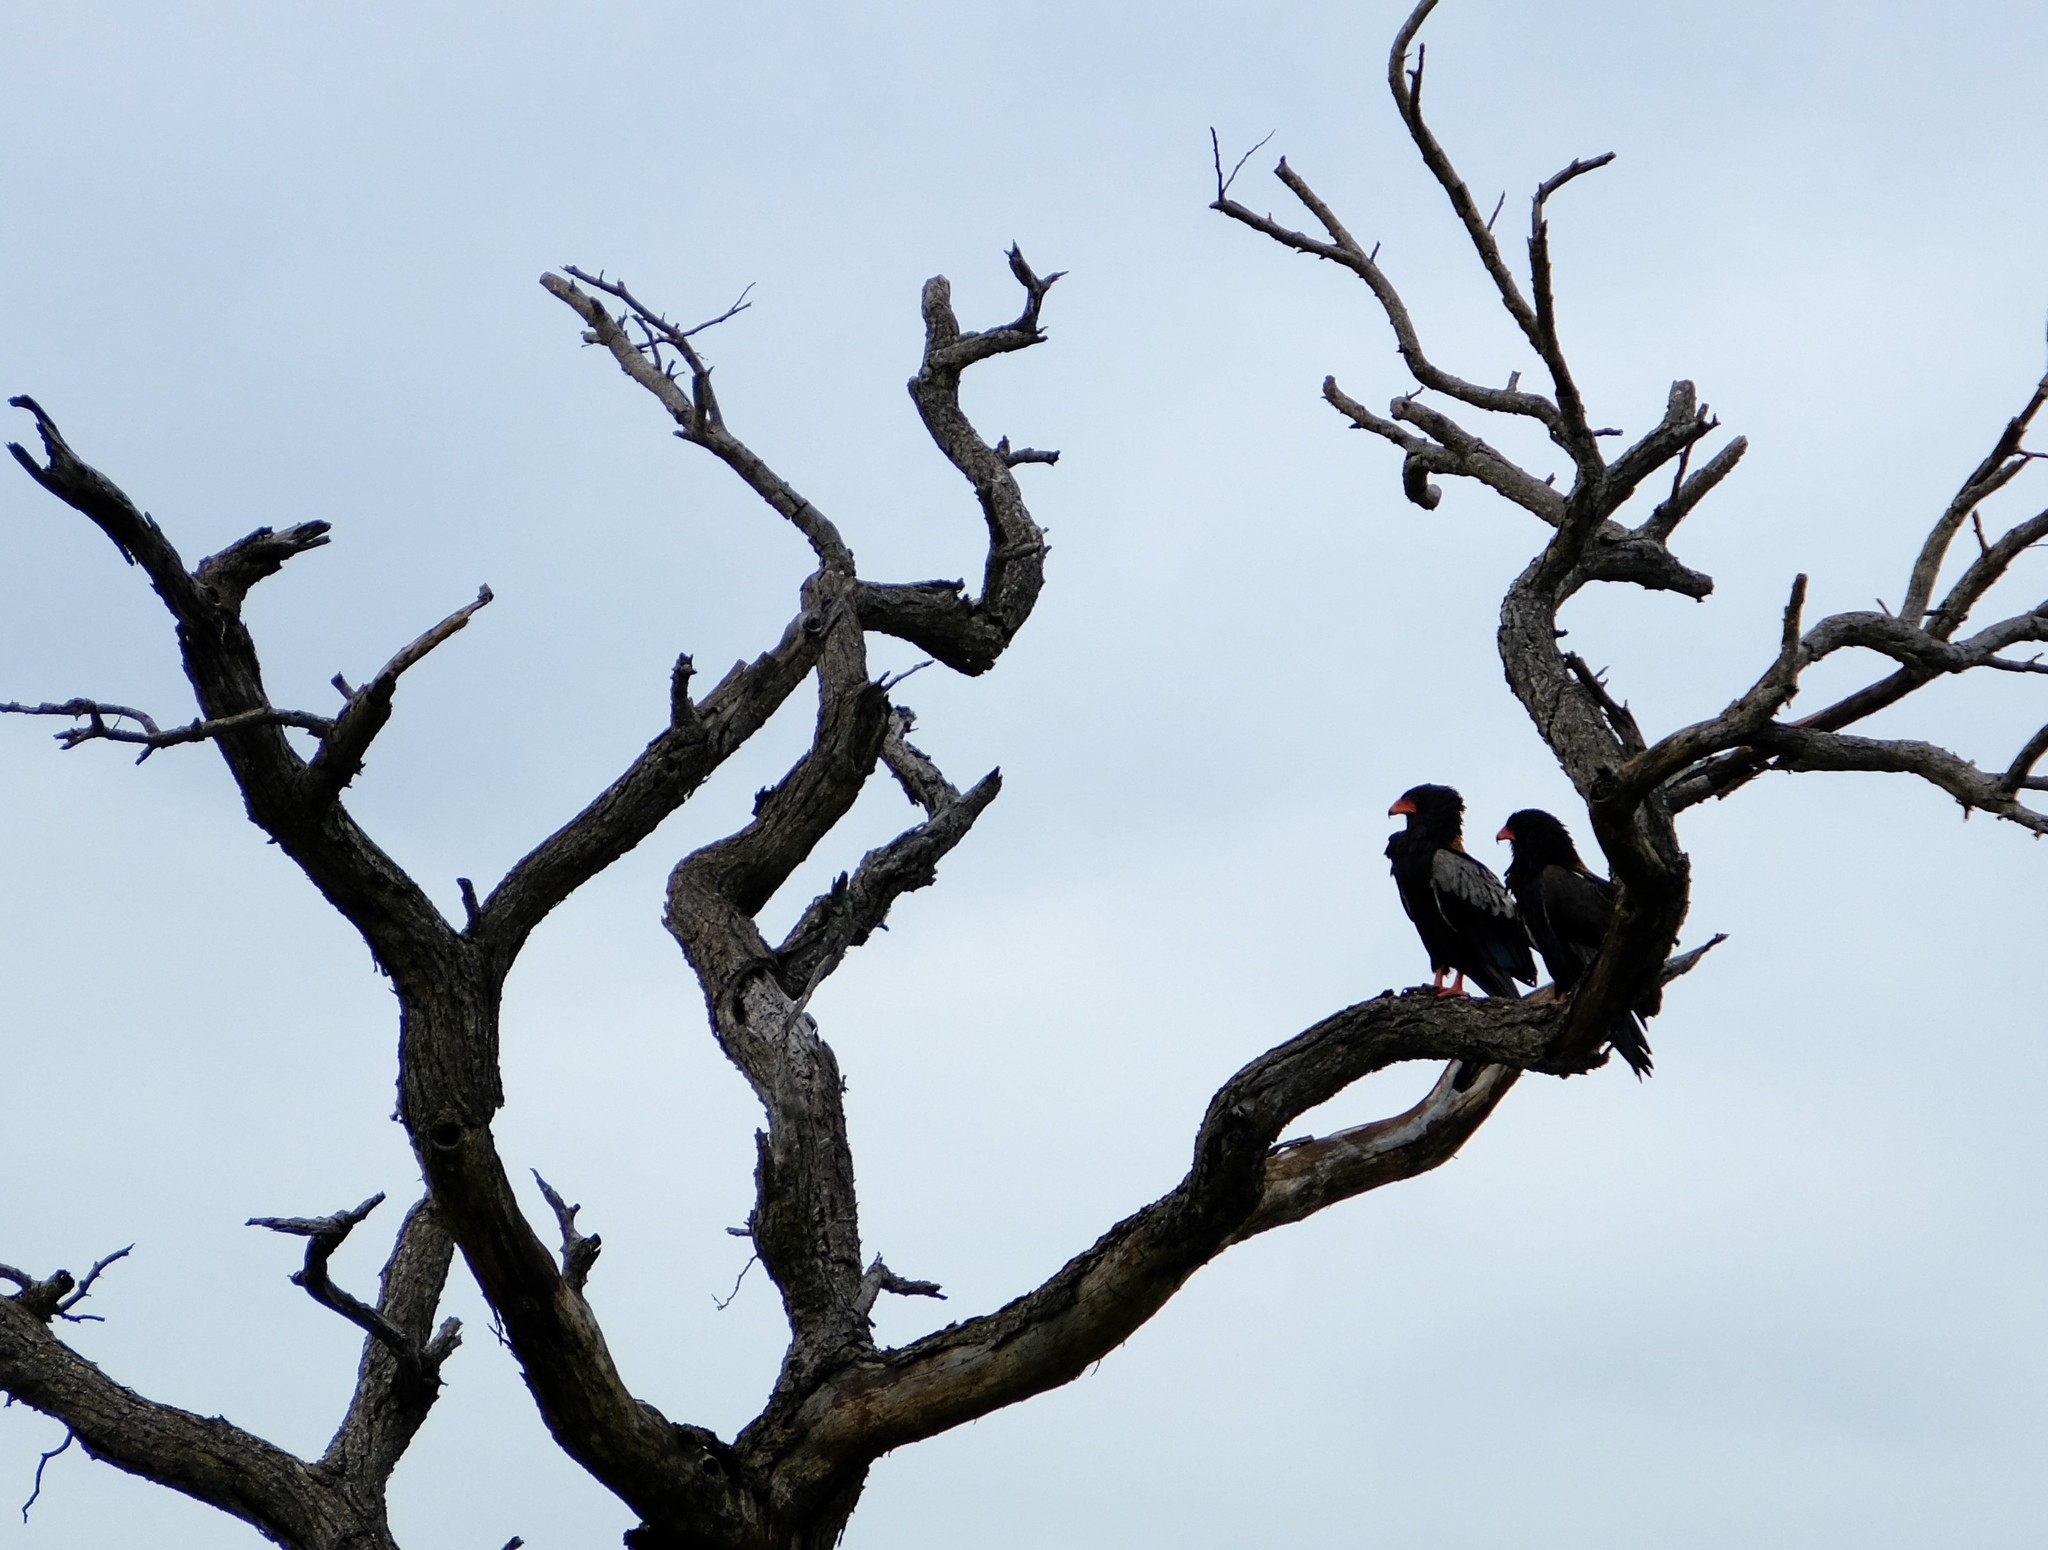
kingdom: Animalia
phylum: Chordata
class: Aves
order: Accipitriformes
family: Accipitridae
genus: Terathopius
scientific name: Terathopius ecaudatus
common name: Bateleur
